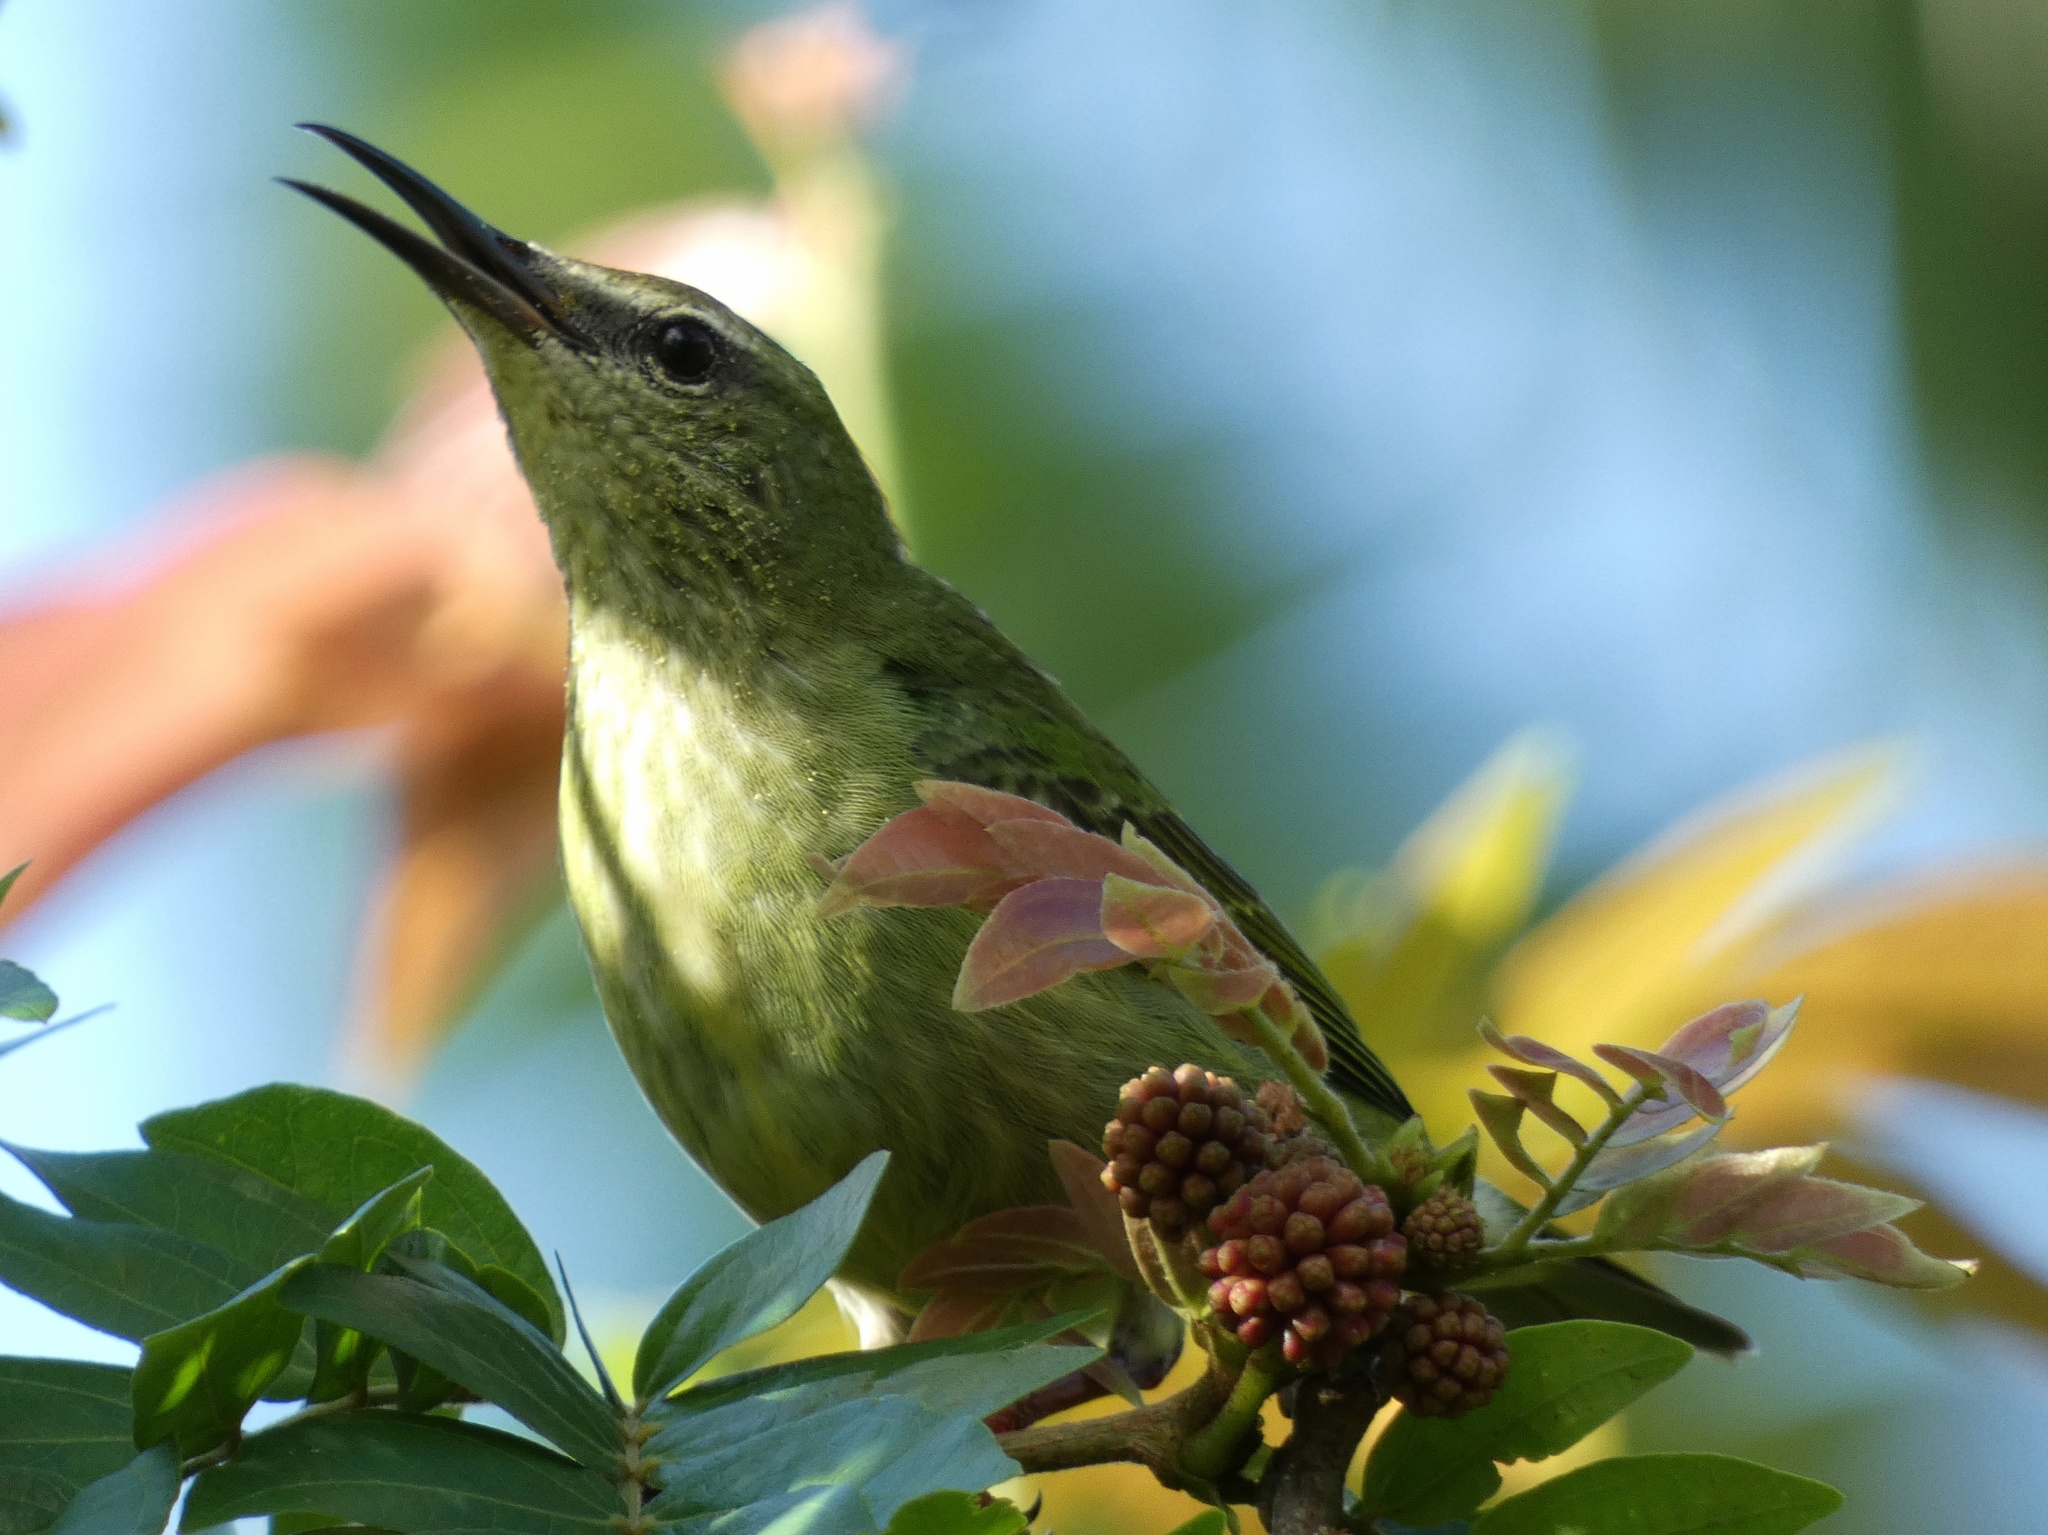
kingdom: Animalia
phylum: Chordata
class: Aves
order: Passeriformes
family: Thraupidae
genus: Cyanerpes
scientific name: Cyanerpes cyaneus
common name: Red-legged honeycreeper
